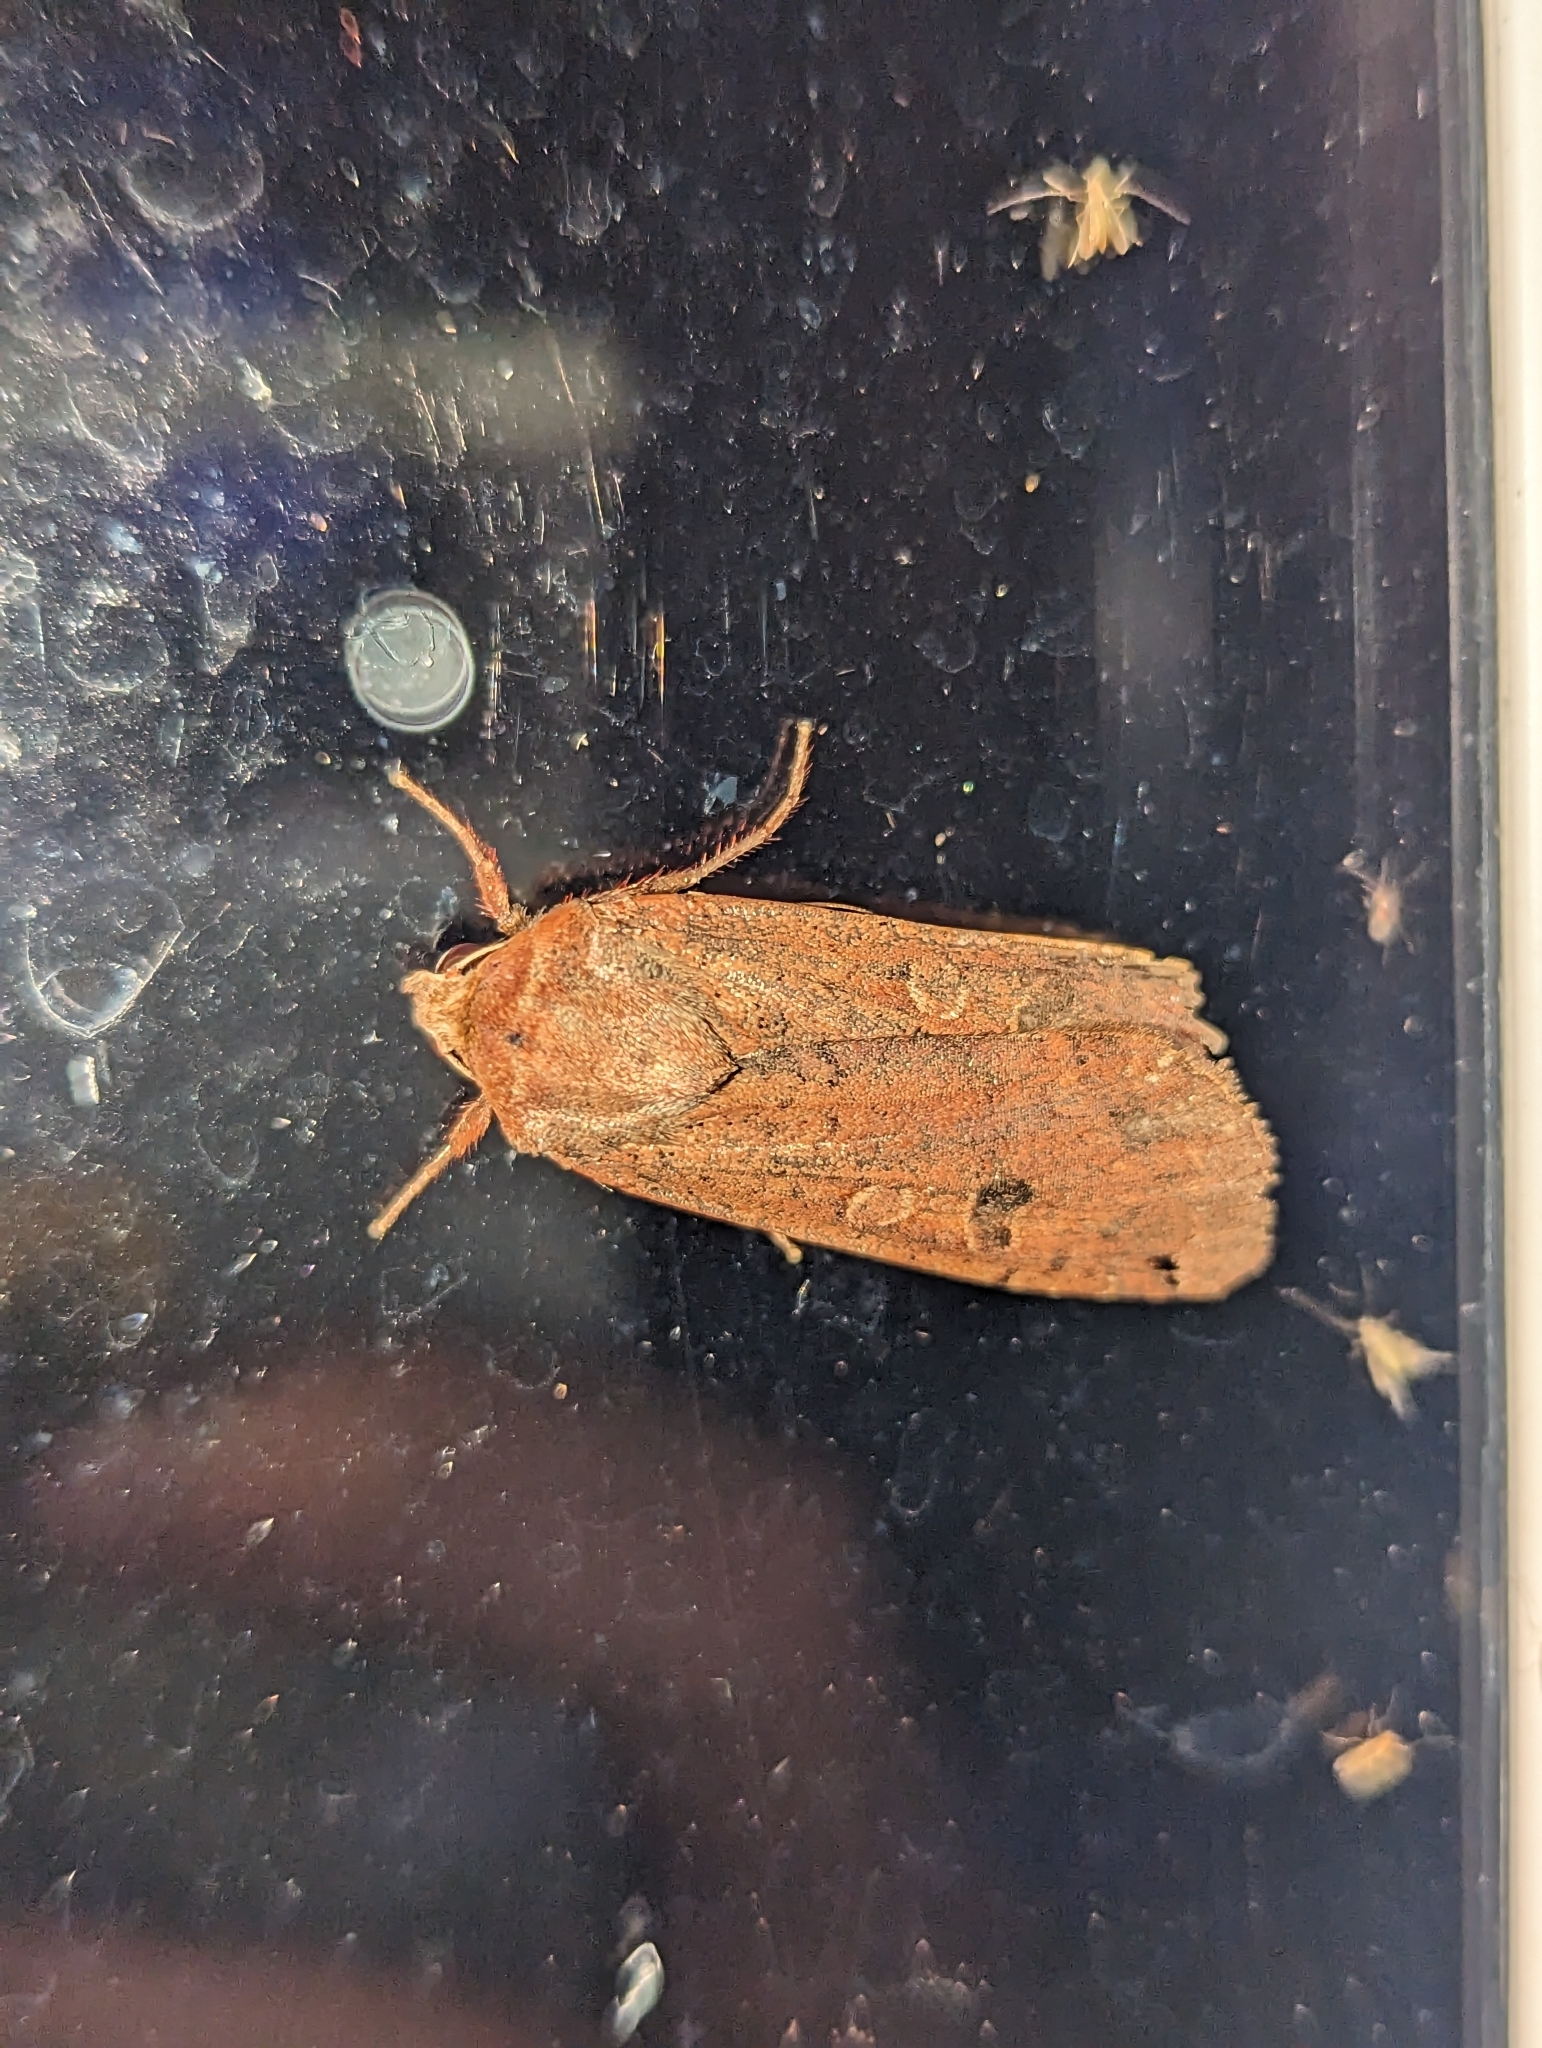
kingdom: Animalia
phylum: Arthropoda
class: Insecta
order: Lepidoptera
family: Noctuidae
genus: Noctua
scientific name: Noctua pronuba
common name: Large yellow underwing
